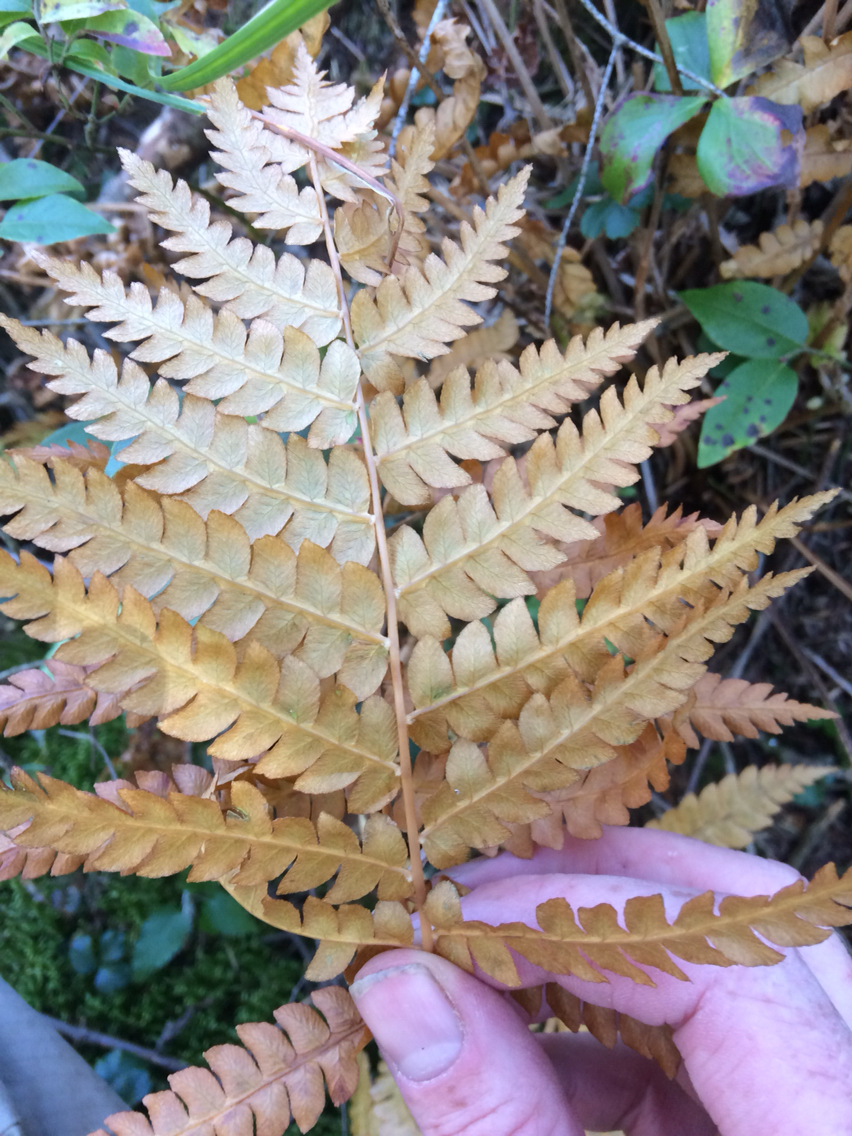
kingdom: Plantae
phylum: Tracheophyta
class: Polypodiopsida
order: Osmundales
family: Osmundaceae
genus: Osmundastrum
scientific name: Osmundastrum cinnamomeum
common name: Cinnamon fern
